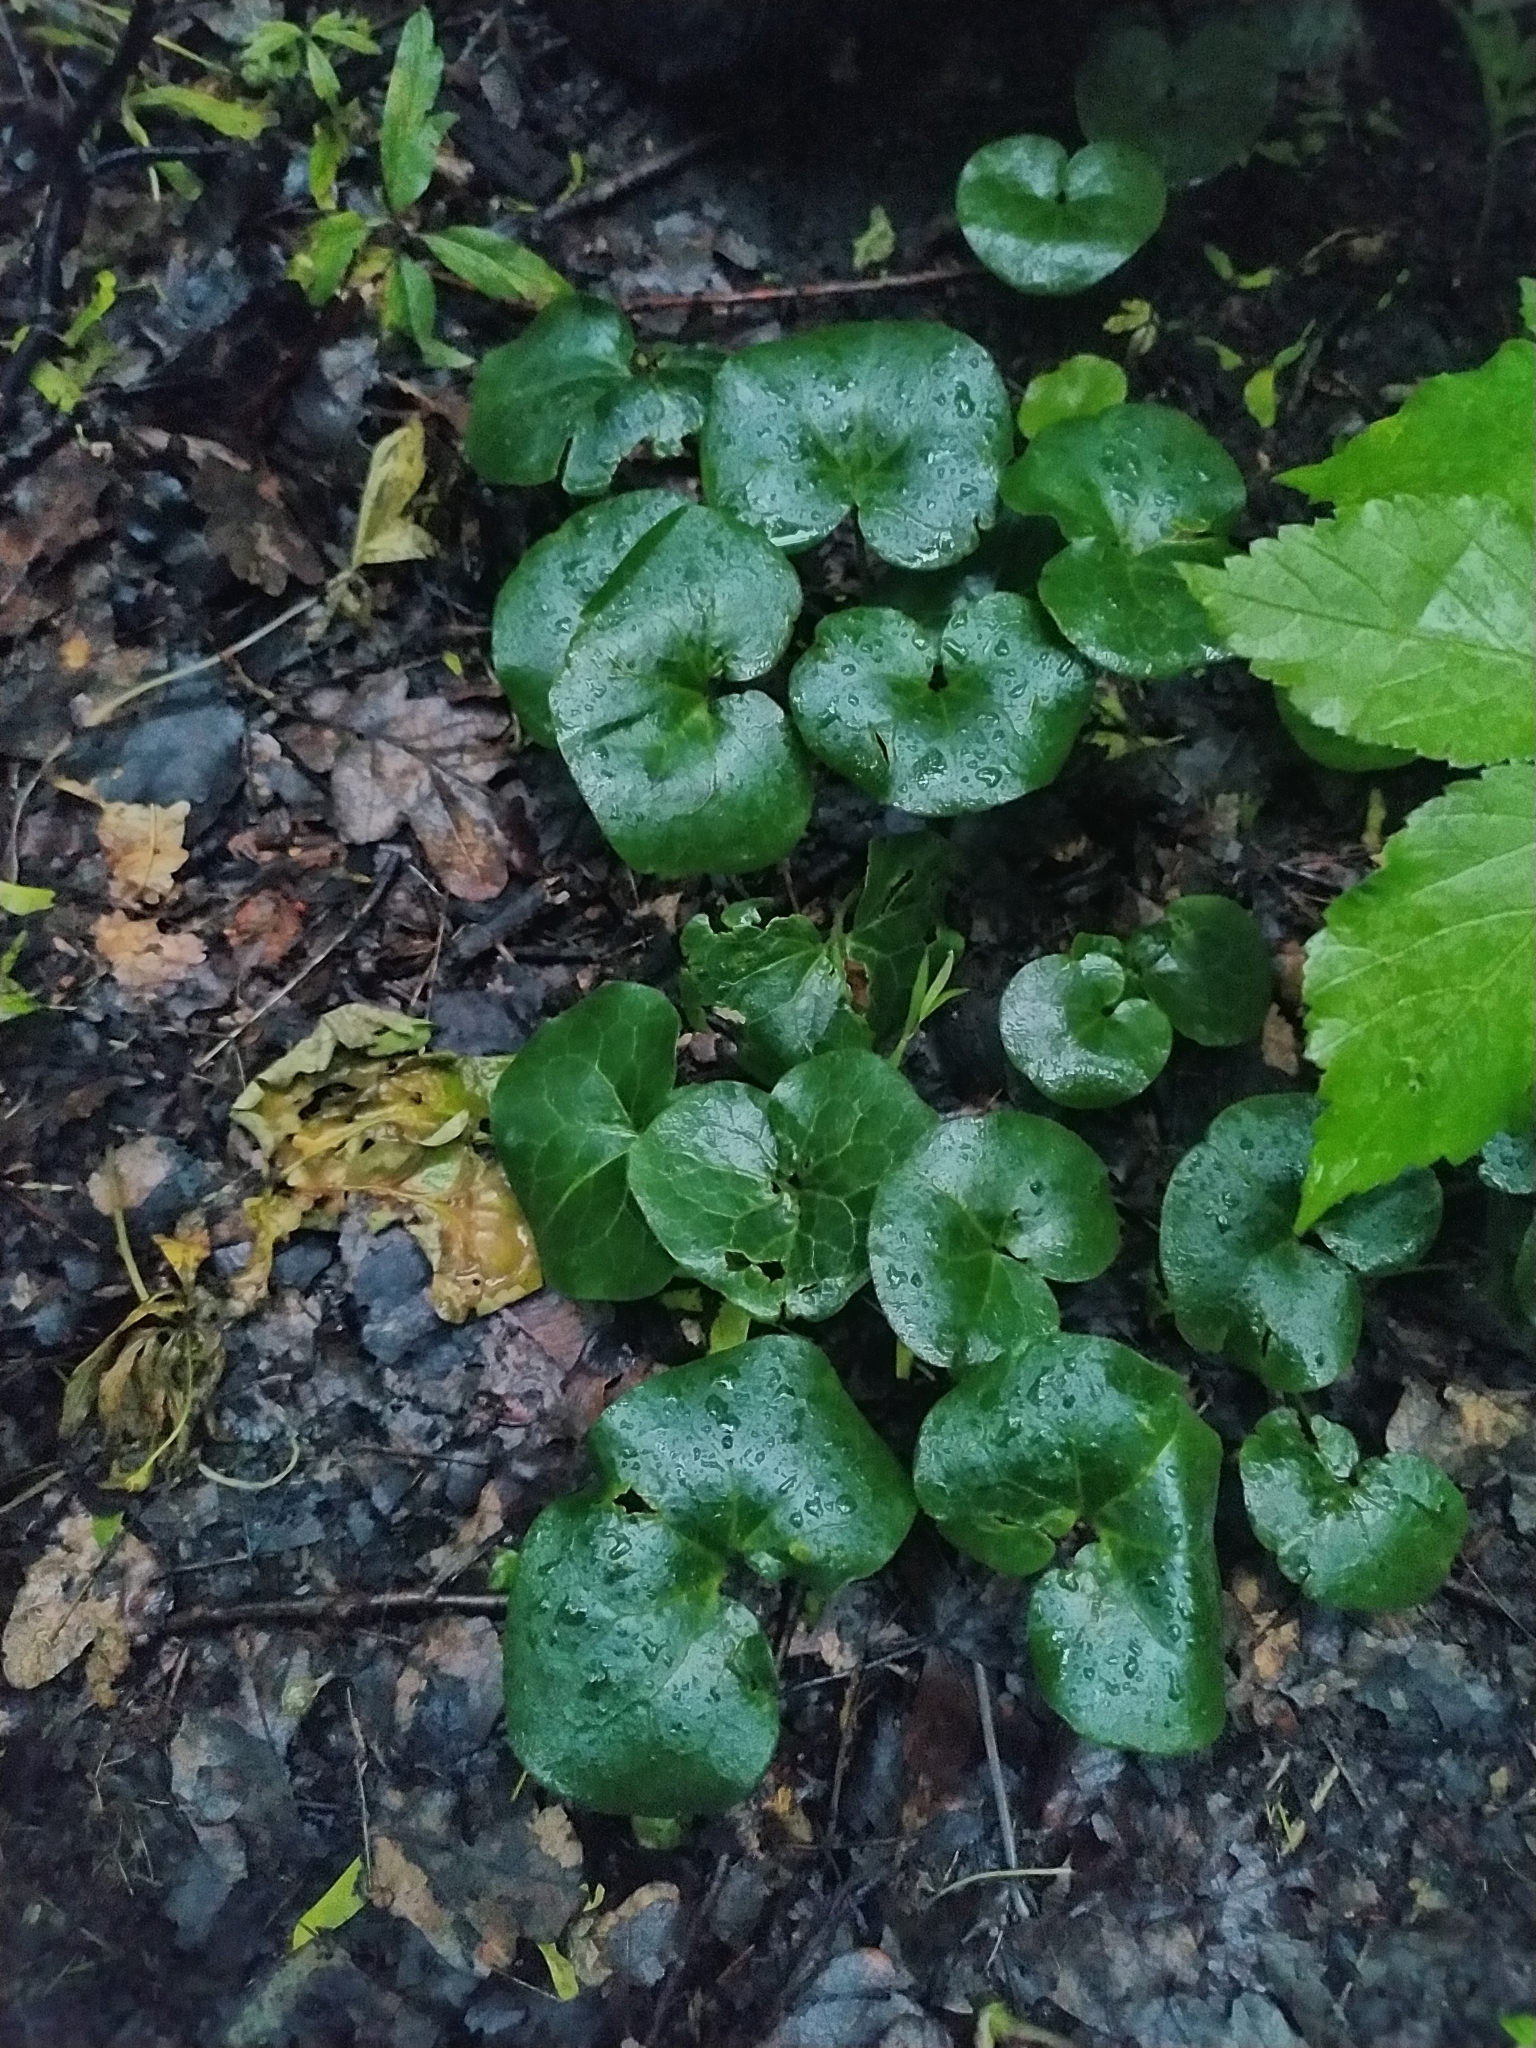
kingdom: Plantae
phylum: Tracheophyta
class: Magnoliopsida
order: Piperales
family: Aristolochiaceae
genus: Asarum
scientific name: Asarum europaeum
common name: Asarabacca
